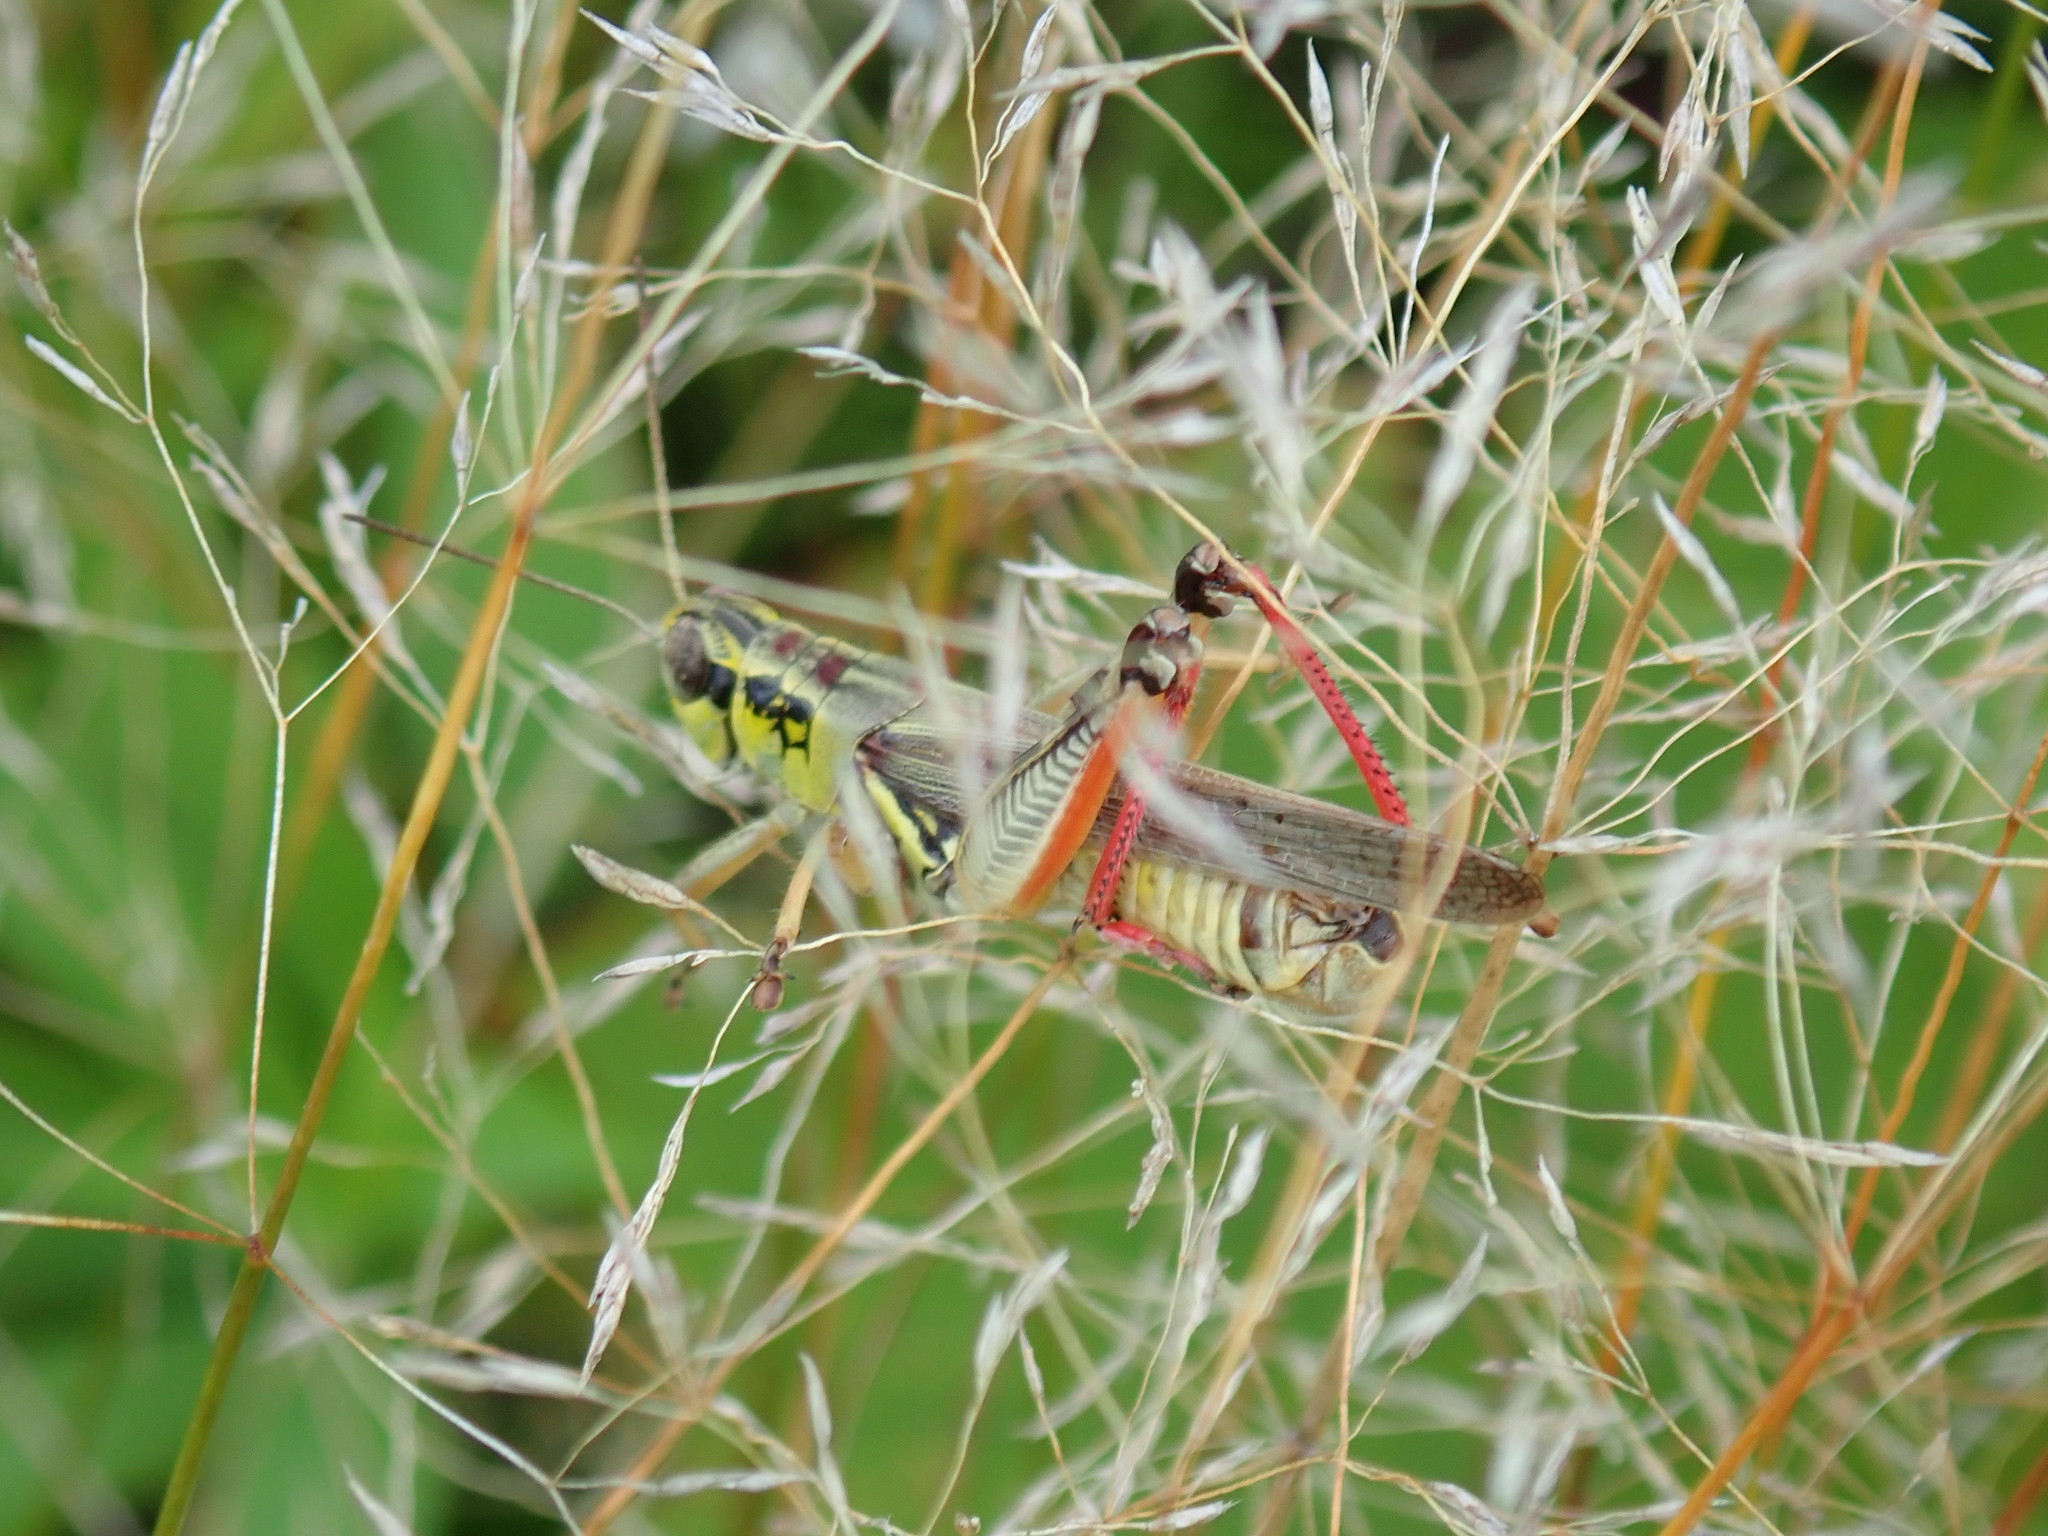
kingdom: Animalia
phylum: Arthropoda
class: Insecta
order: Orthoptera
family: Acrididae
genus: Melanoplus
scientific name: Melanoplus femurrubrum
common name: Red-legged grasshopper
